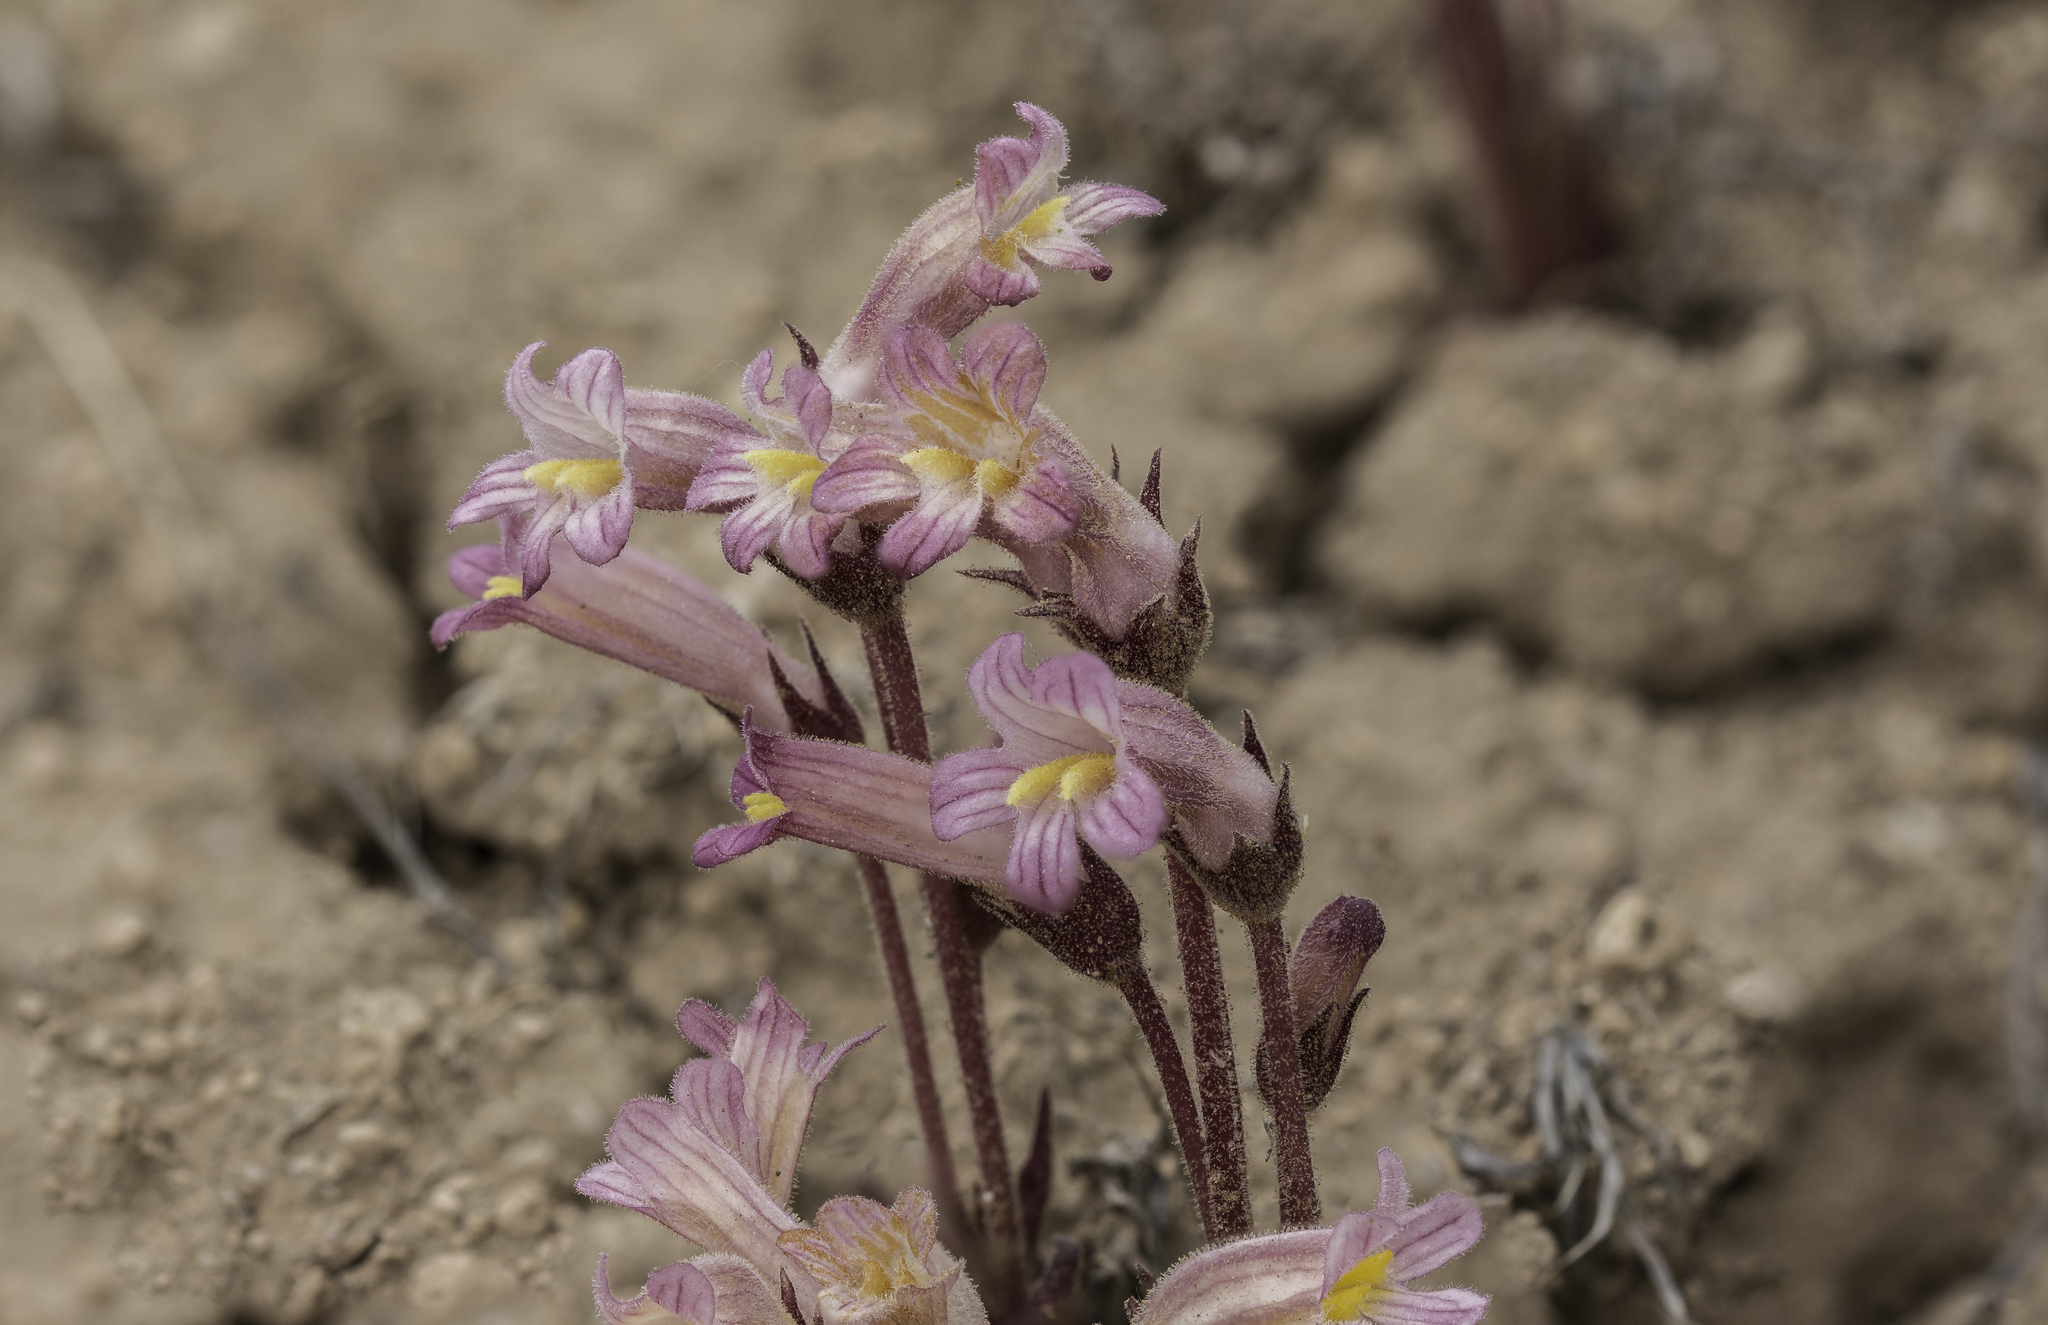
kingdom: Plantae
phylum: Tracheophyta
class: Magnoliopsida
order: Lamiales
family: Orobanchaceae
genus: Aphyllon
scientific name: Aphyllon fasciculatum
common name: Clustered broomrape
